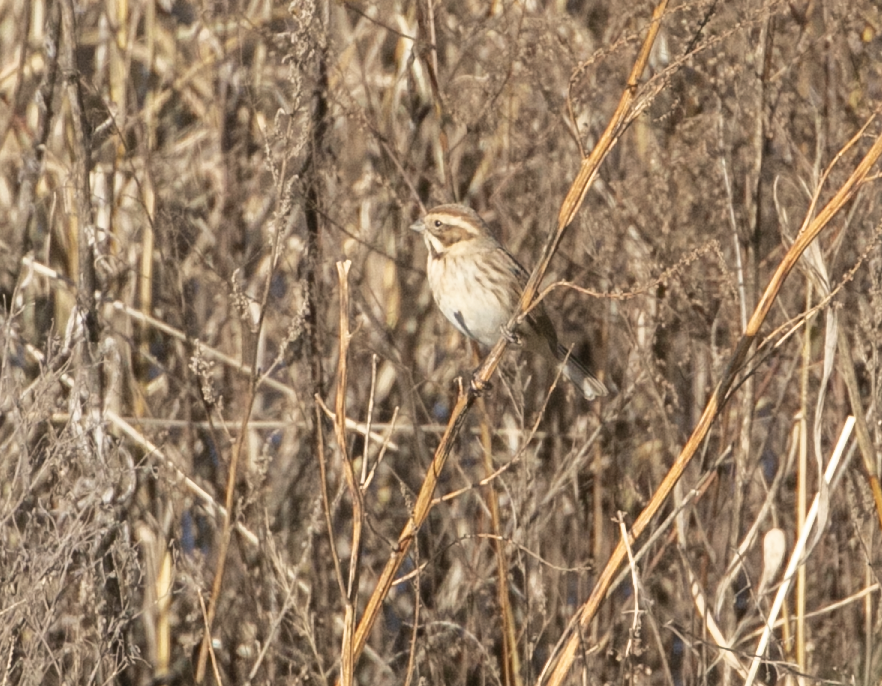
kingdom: Animalia
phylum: Chordata
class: Aves
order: Passeriformes
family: Emberizidae
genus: Emberiza
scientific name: Emberiza schoeniclus
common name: Reed bunting
